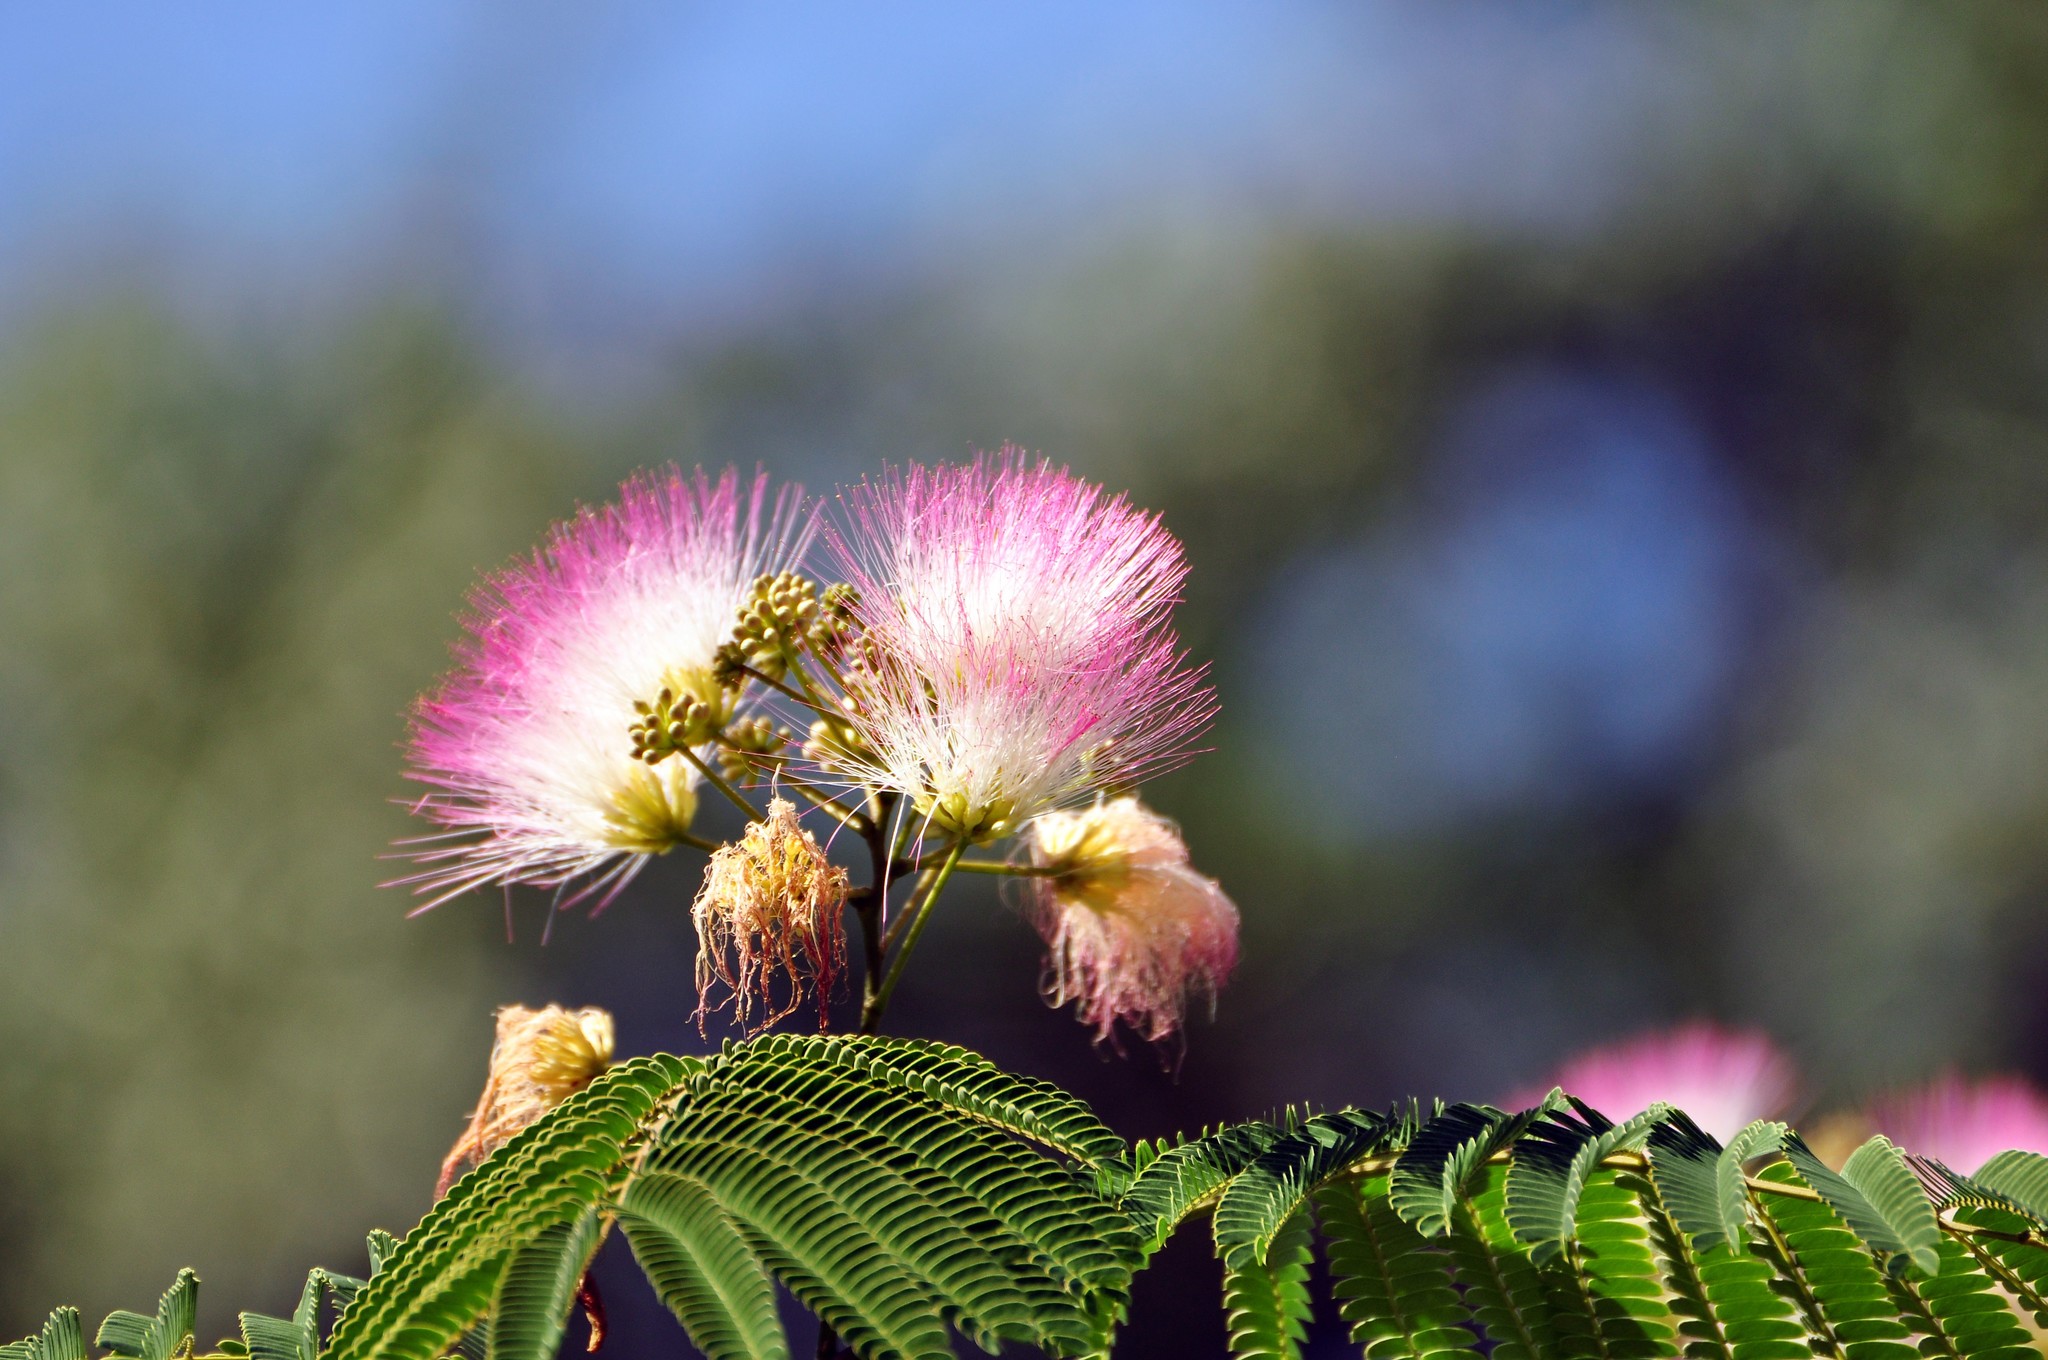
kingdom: Plantae
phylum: Tracheophyta
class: Magnoliopsida
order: Fabales
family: Fabaceae
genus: Albizia
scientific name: Albizia julibrissin
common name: Silktree
